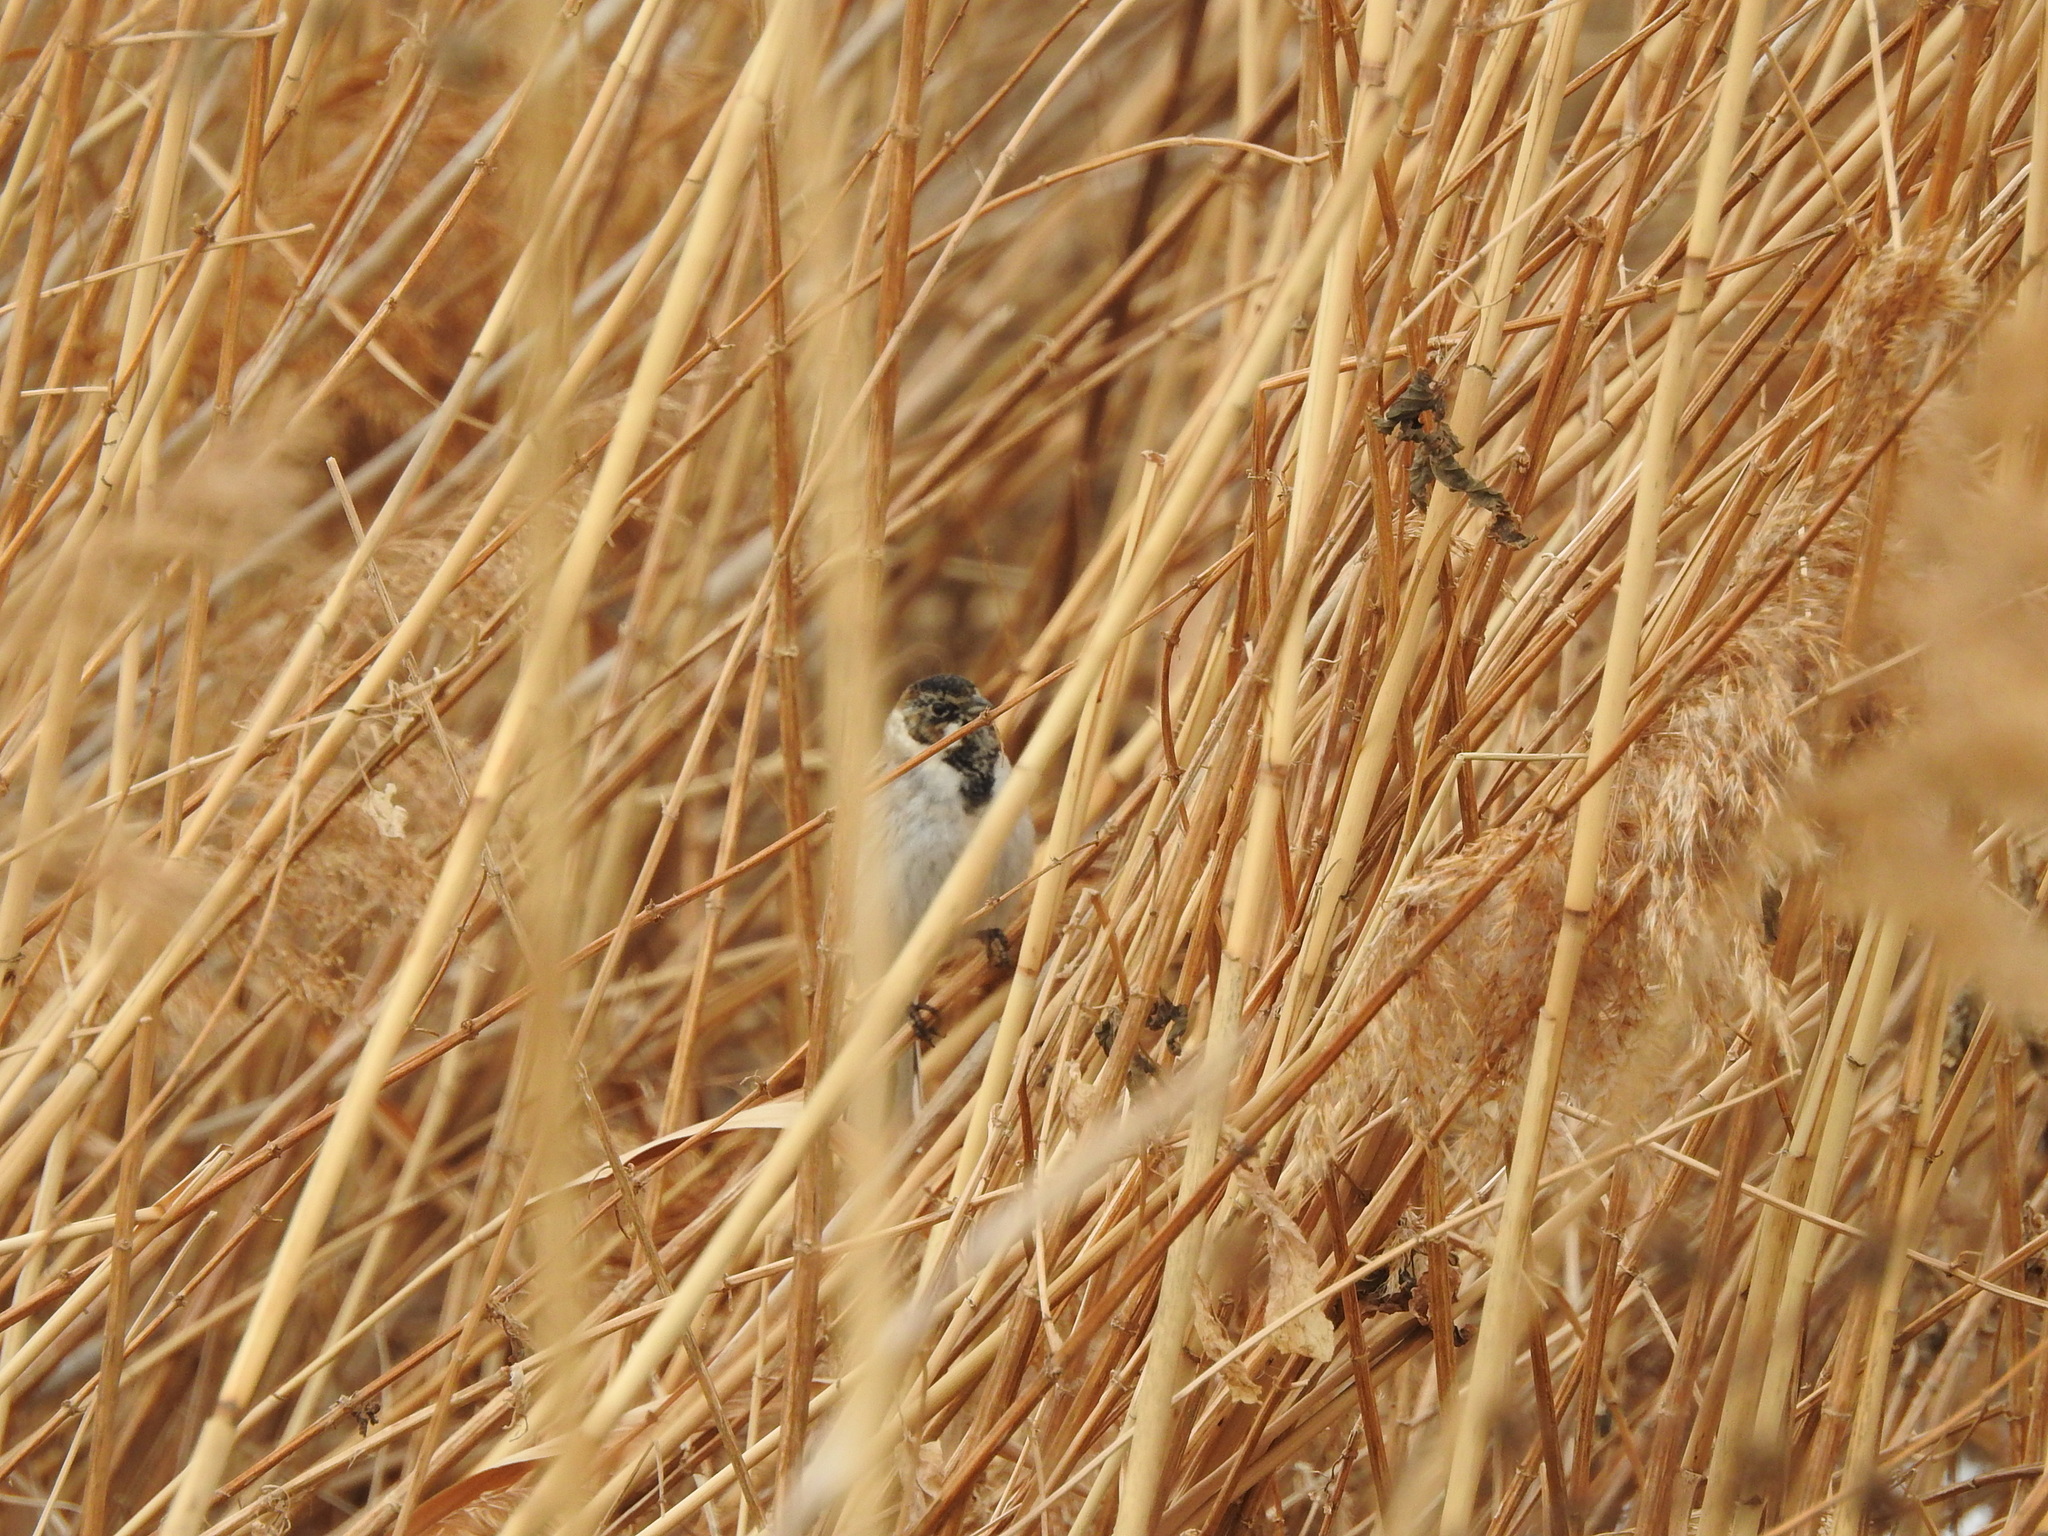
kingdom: Animalia
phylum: Chordata
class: Aves
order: Passeriformes
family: Emberizidae
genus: Emberiza
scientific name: Emberiza schoeniclus
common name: Reed bunting
